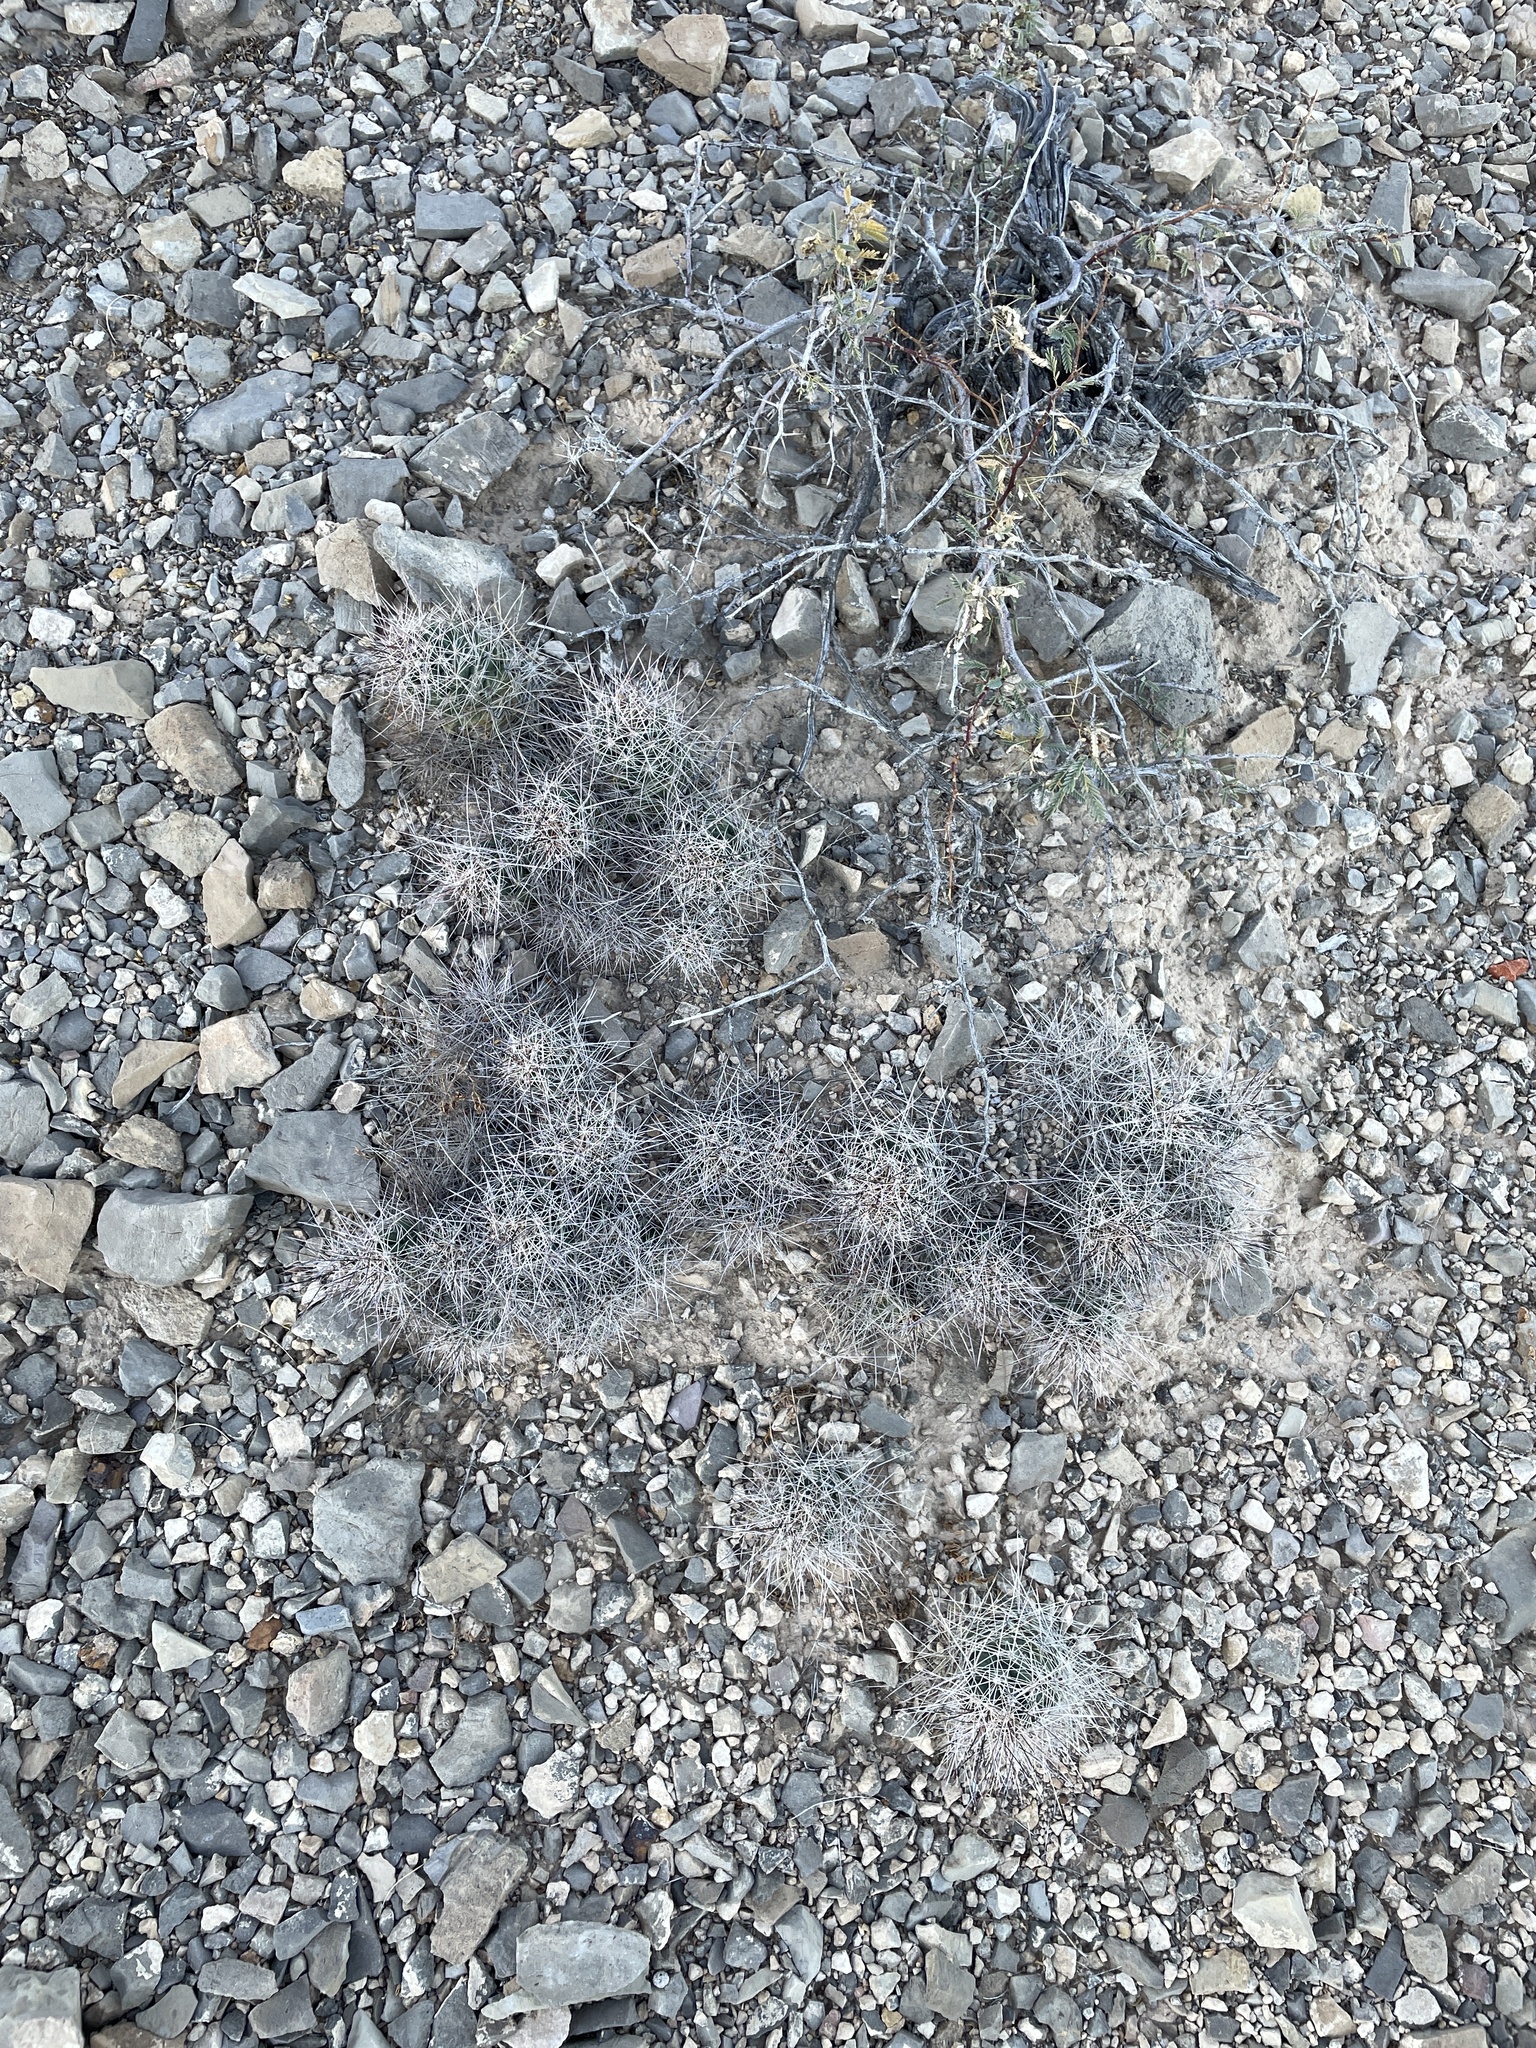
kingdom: Plantae
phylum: Tracheophyta
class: Magnoliopsida
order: Caryophyllales
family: Cactaceae
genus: Coryphantha
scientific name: Coryphantha macromeris
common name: Nipple beehive cactus
